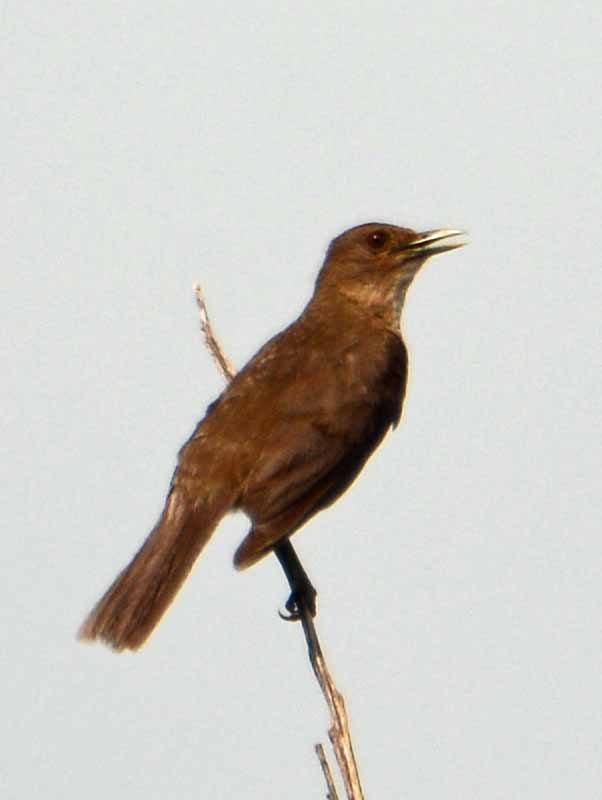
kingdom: Animalia
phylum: Chordata
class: Aves
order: Passeriformes
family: Turdidae
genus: Turdus
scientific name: Turdus grayi
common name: Clay-colored thrush
